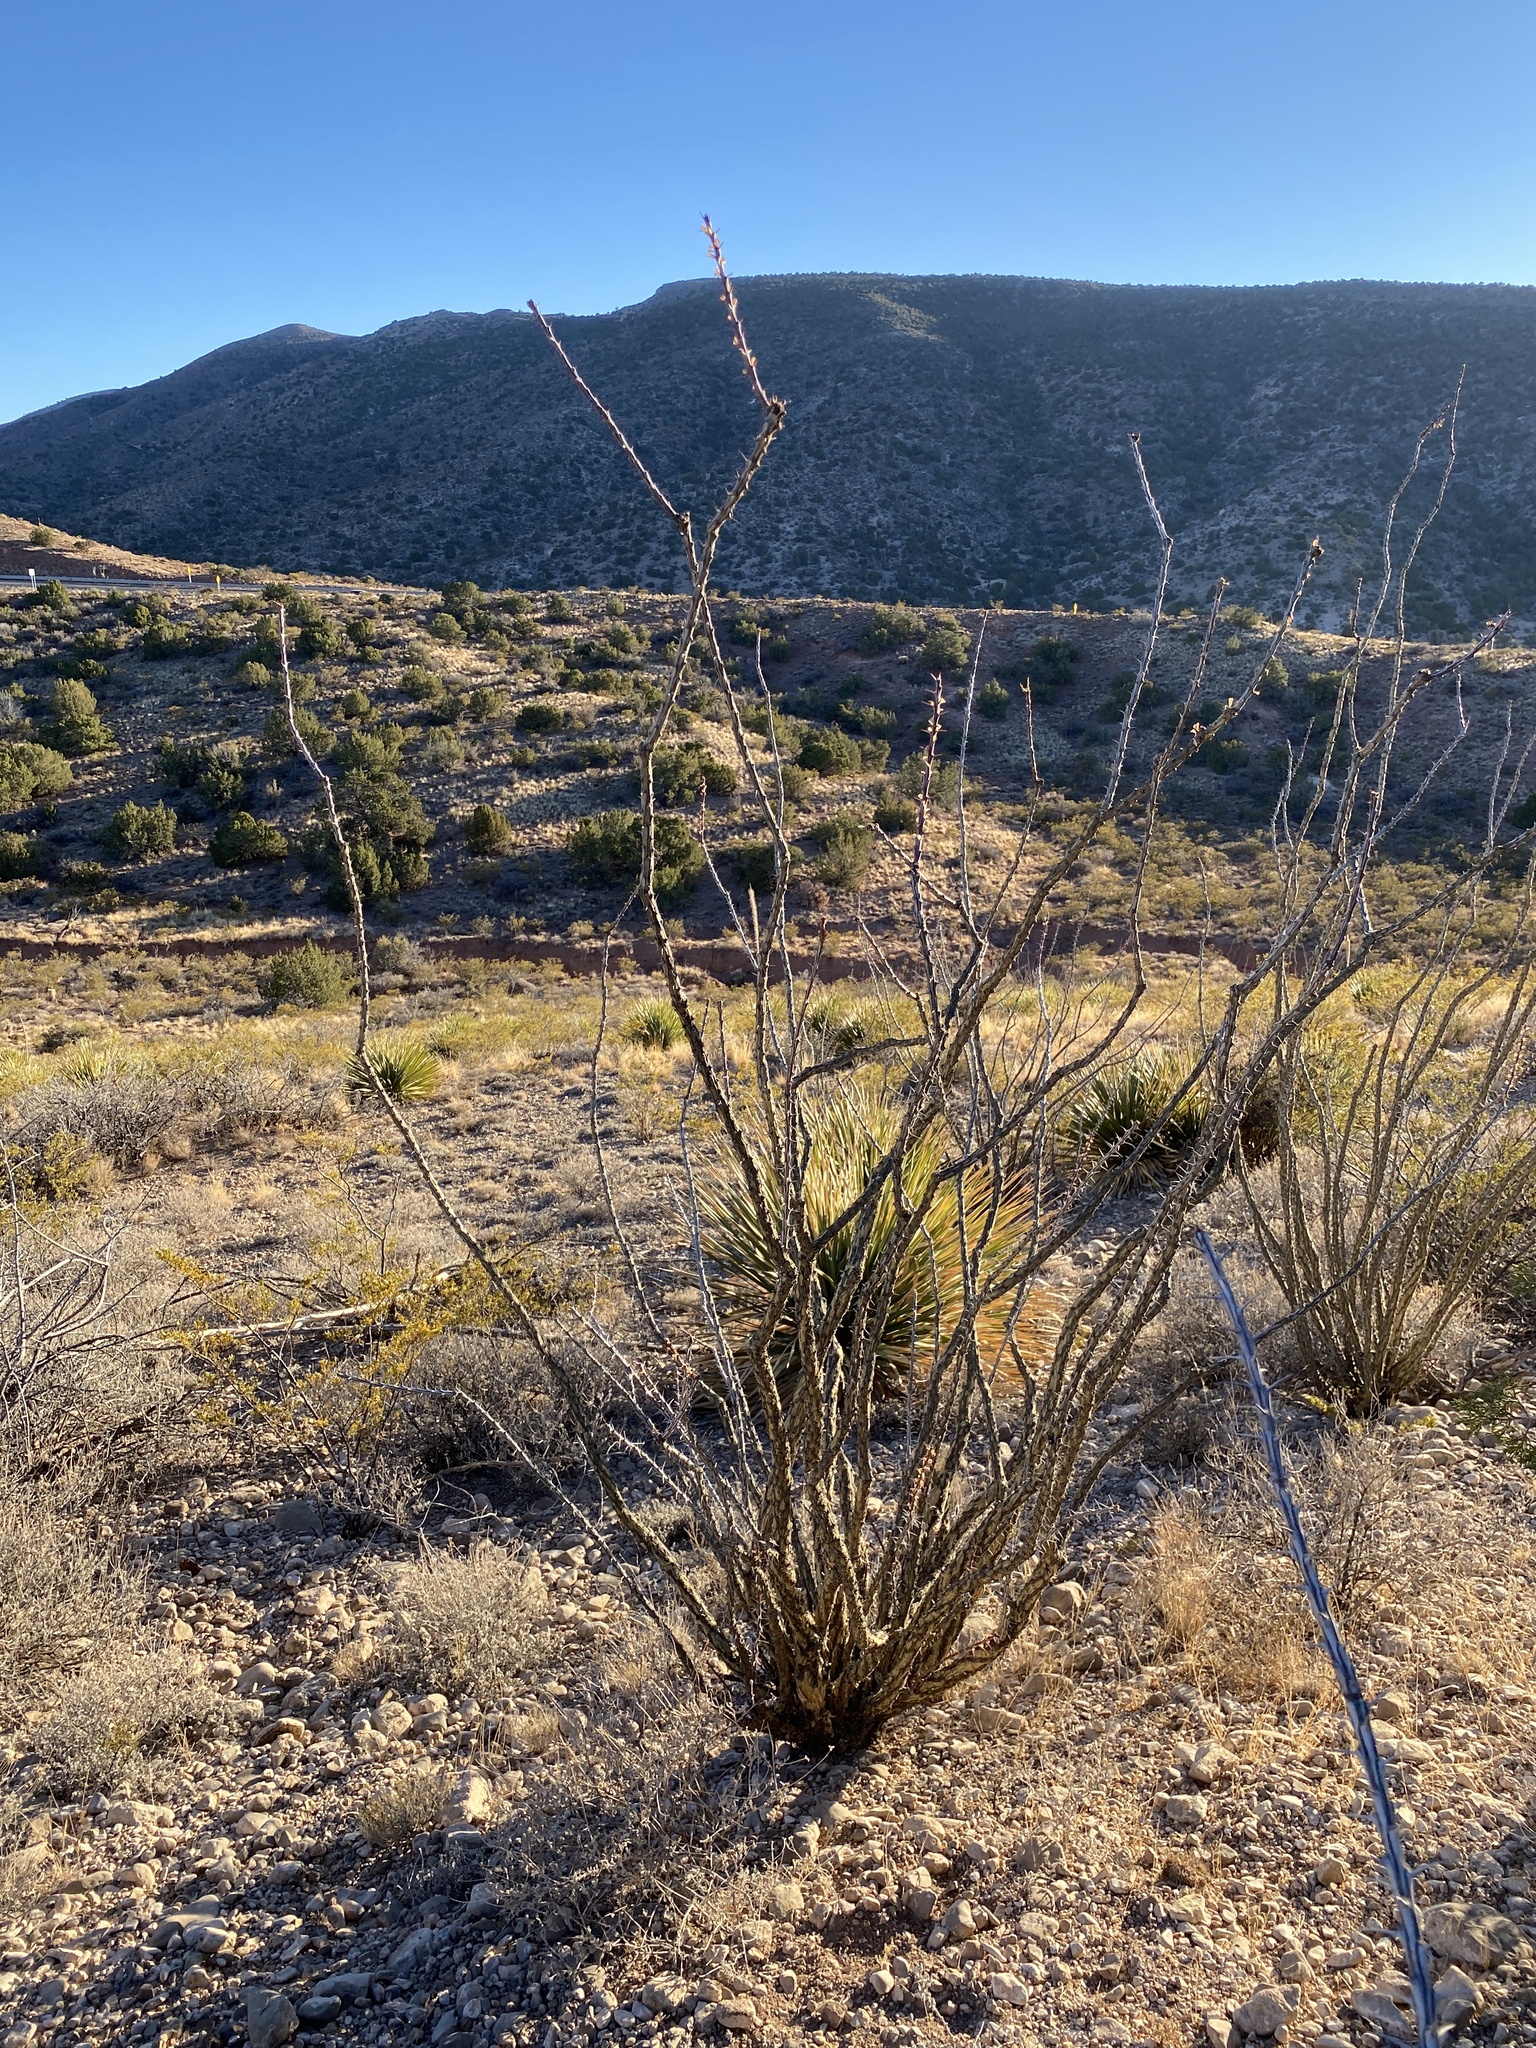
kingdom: Plantae
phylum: Tracheophyta
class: Magnoliopsida
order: Ericales
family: Fouquieriaceae
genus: Fouquieria
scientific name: Fouquieria splendens
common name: Vine-cactus
